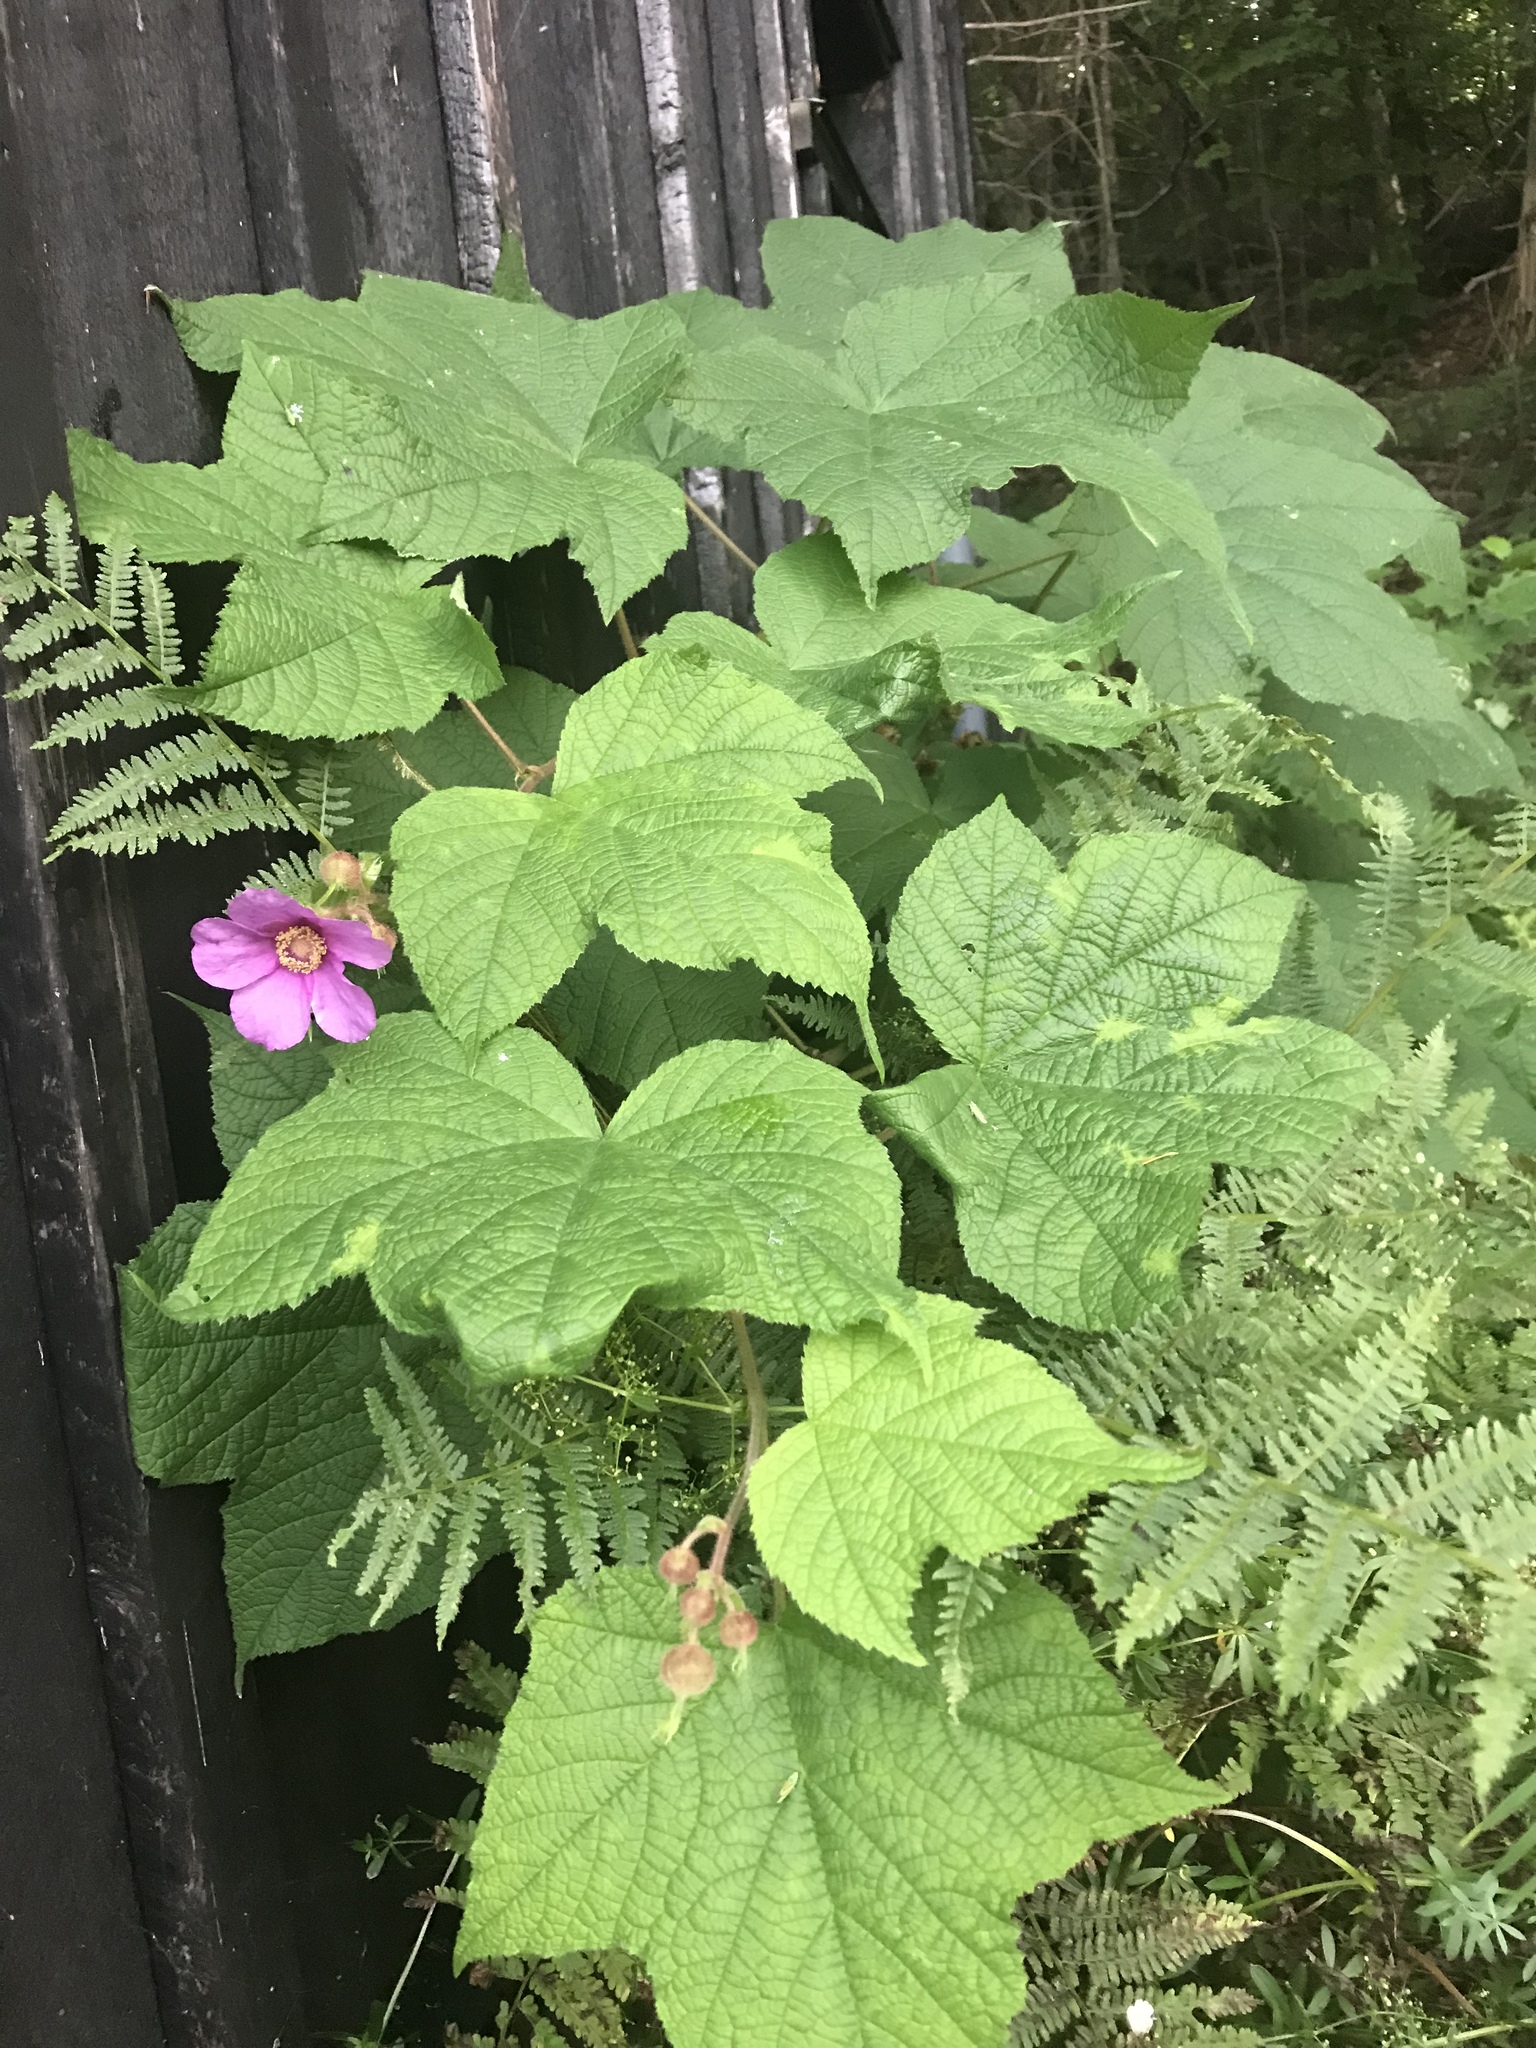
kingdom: Plantae
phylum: Tracheophyta
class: Magnoliopsida
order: Rosales
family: Rosaceae
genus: Rubus
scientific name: Rubus odoratus
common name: Purple-flowered raspberry
